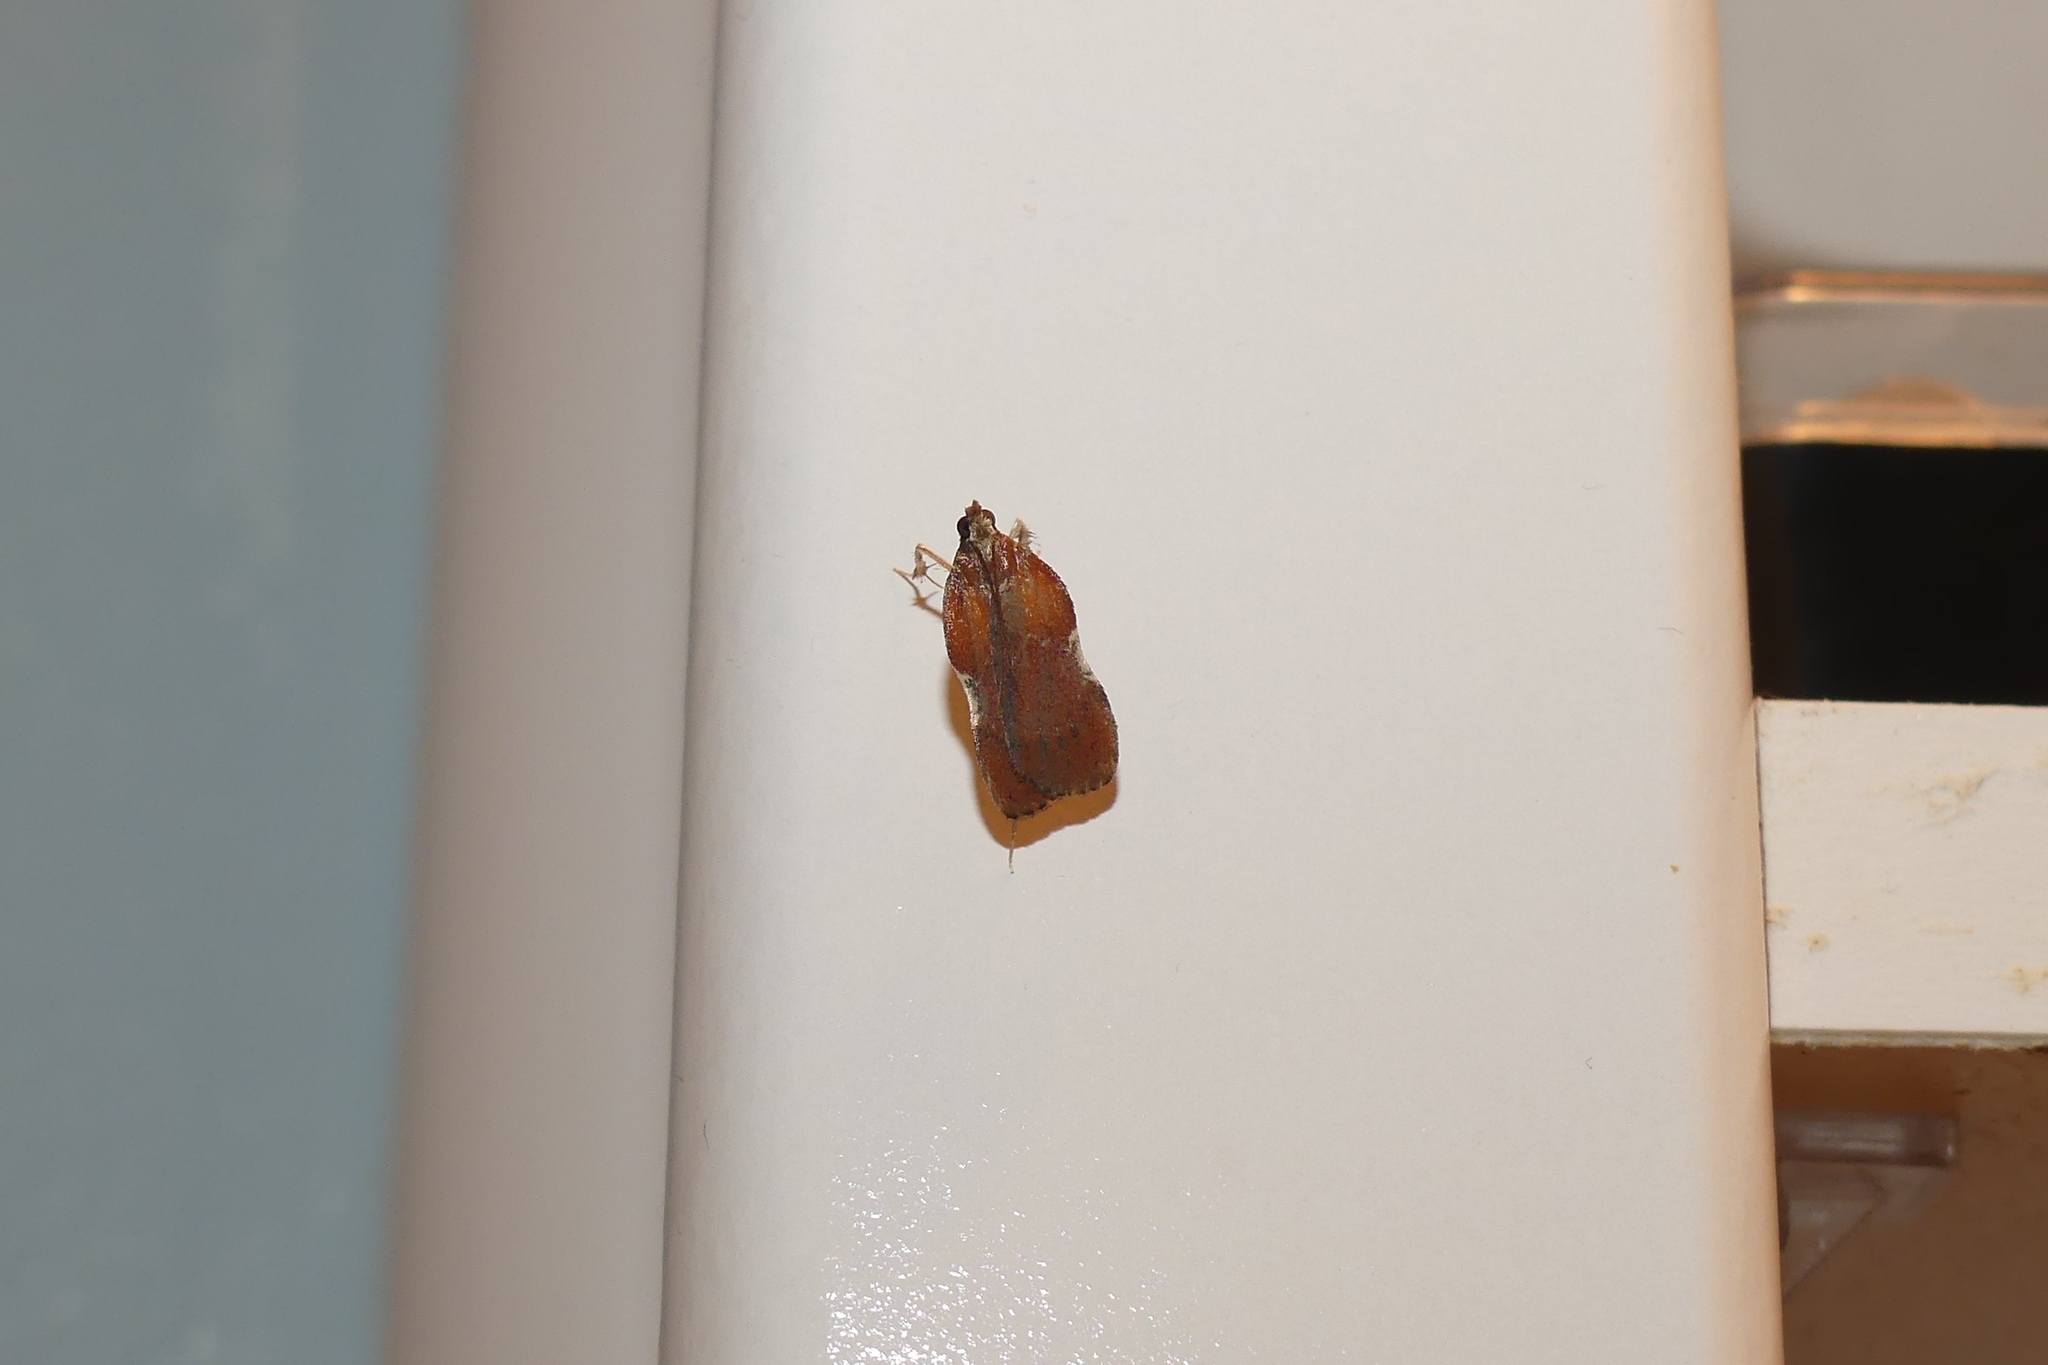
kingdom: Animalia
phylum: Arthropoda
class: Insecta
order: Lepidoptera
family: Pyralidae
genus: Galasa
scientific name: Galasa nigrinodis
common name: Boxwood leaftier moth
